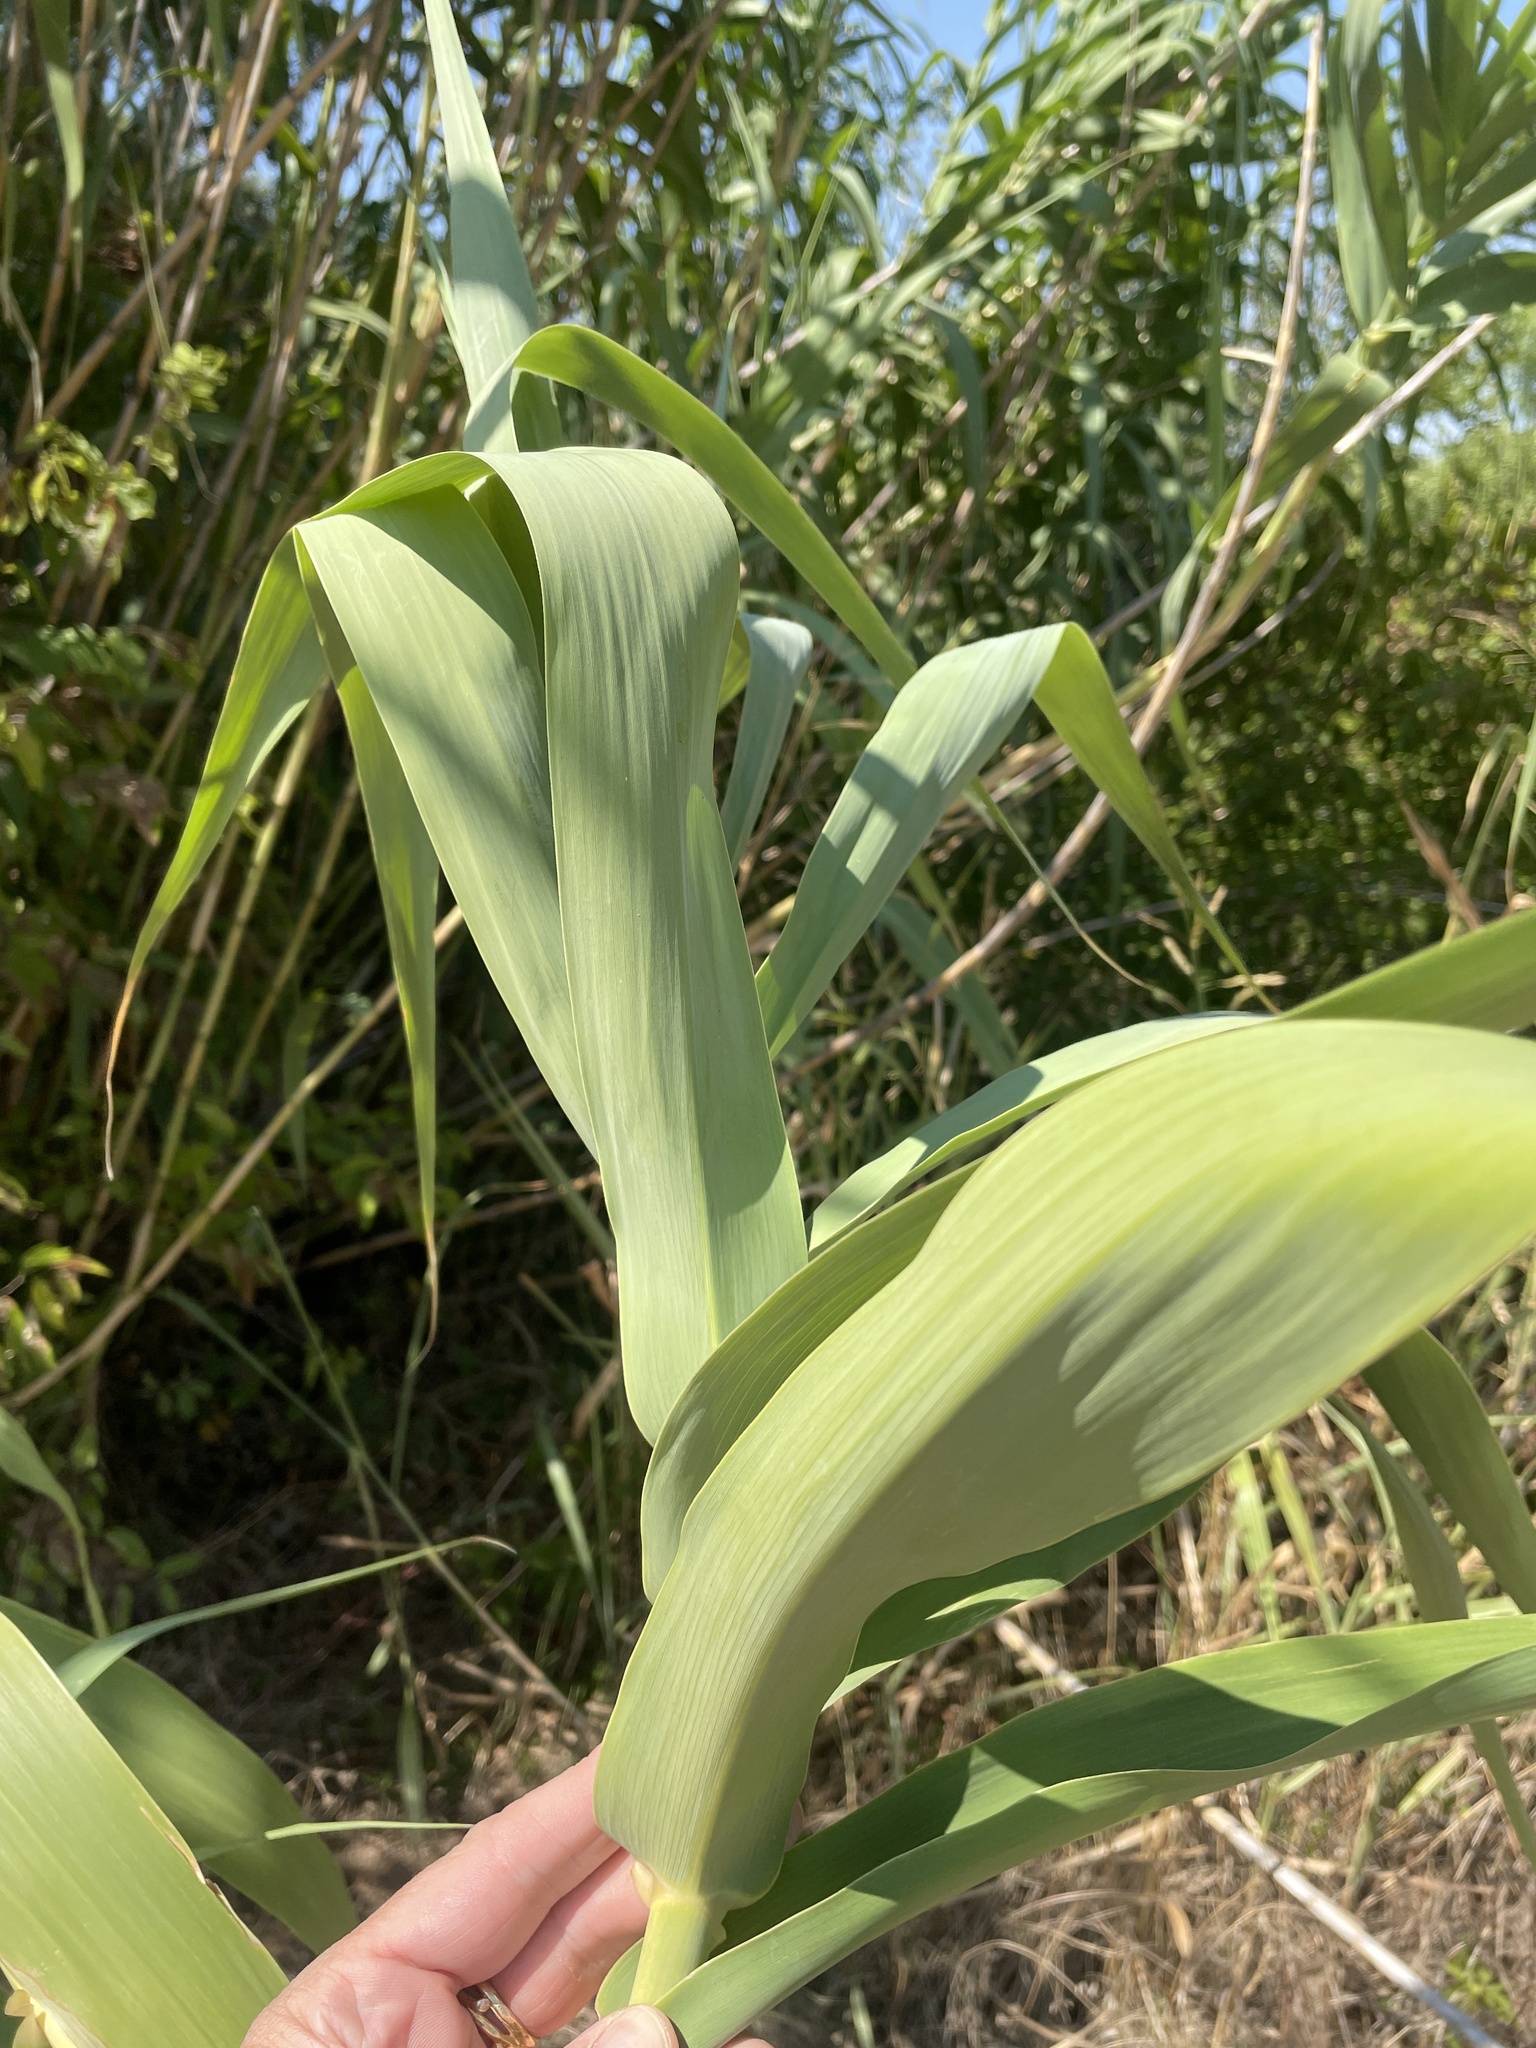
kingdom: Plantae
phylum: Tracheophyta
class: Liliopsida
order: Poales
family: Poaceae
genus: Arundo
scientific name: Arundo donax
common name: Giant reed
